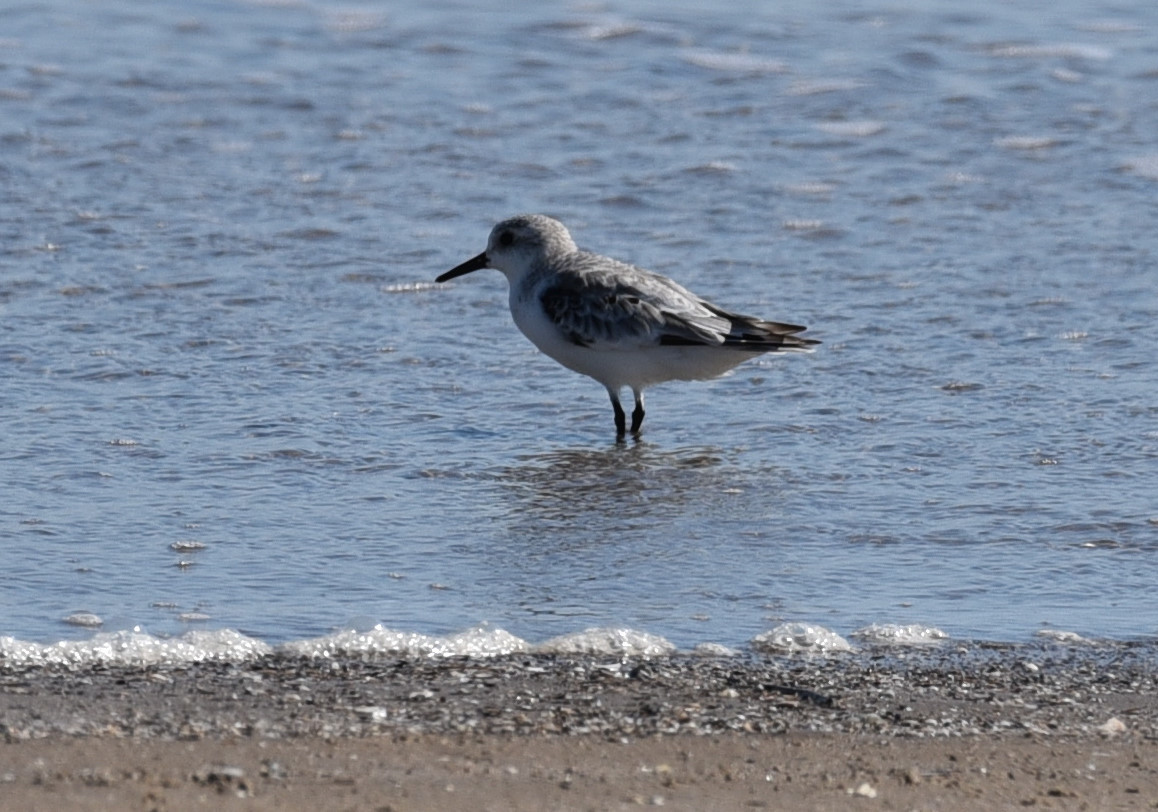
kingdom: Animalia
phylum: Chordata
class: Aves
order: Charadriiformes
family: Scolopacidae
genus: Calidris
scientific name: Calidris alba
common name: Sanderling
